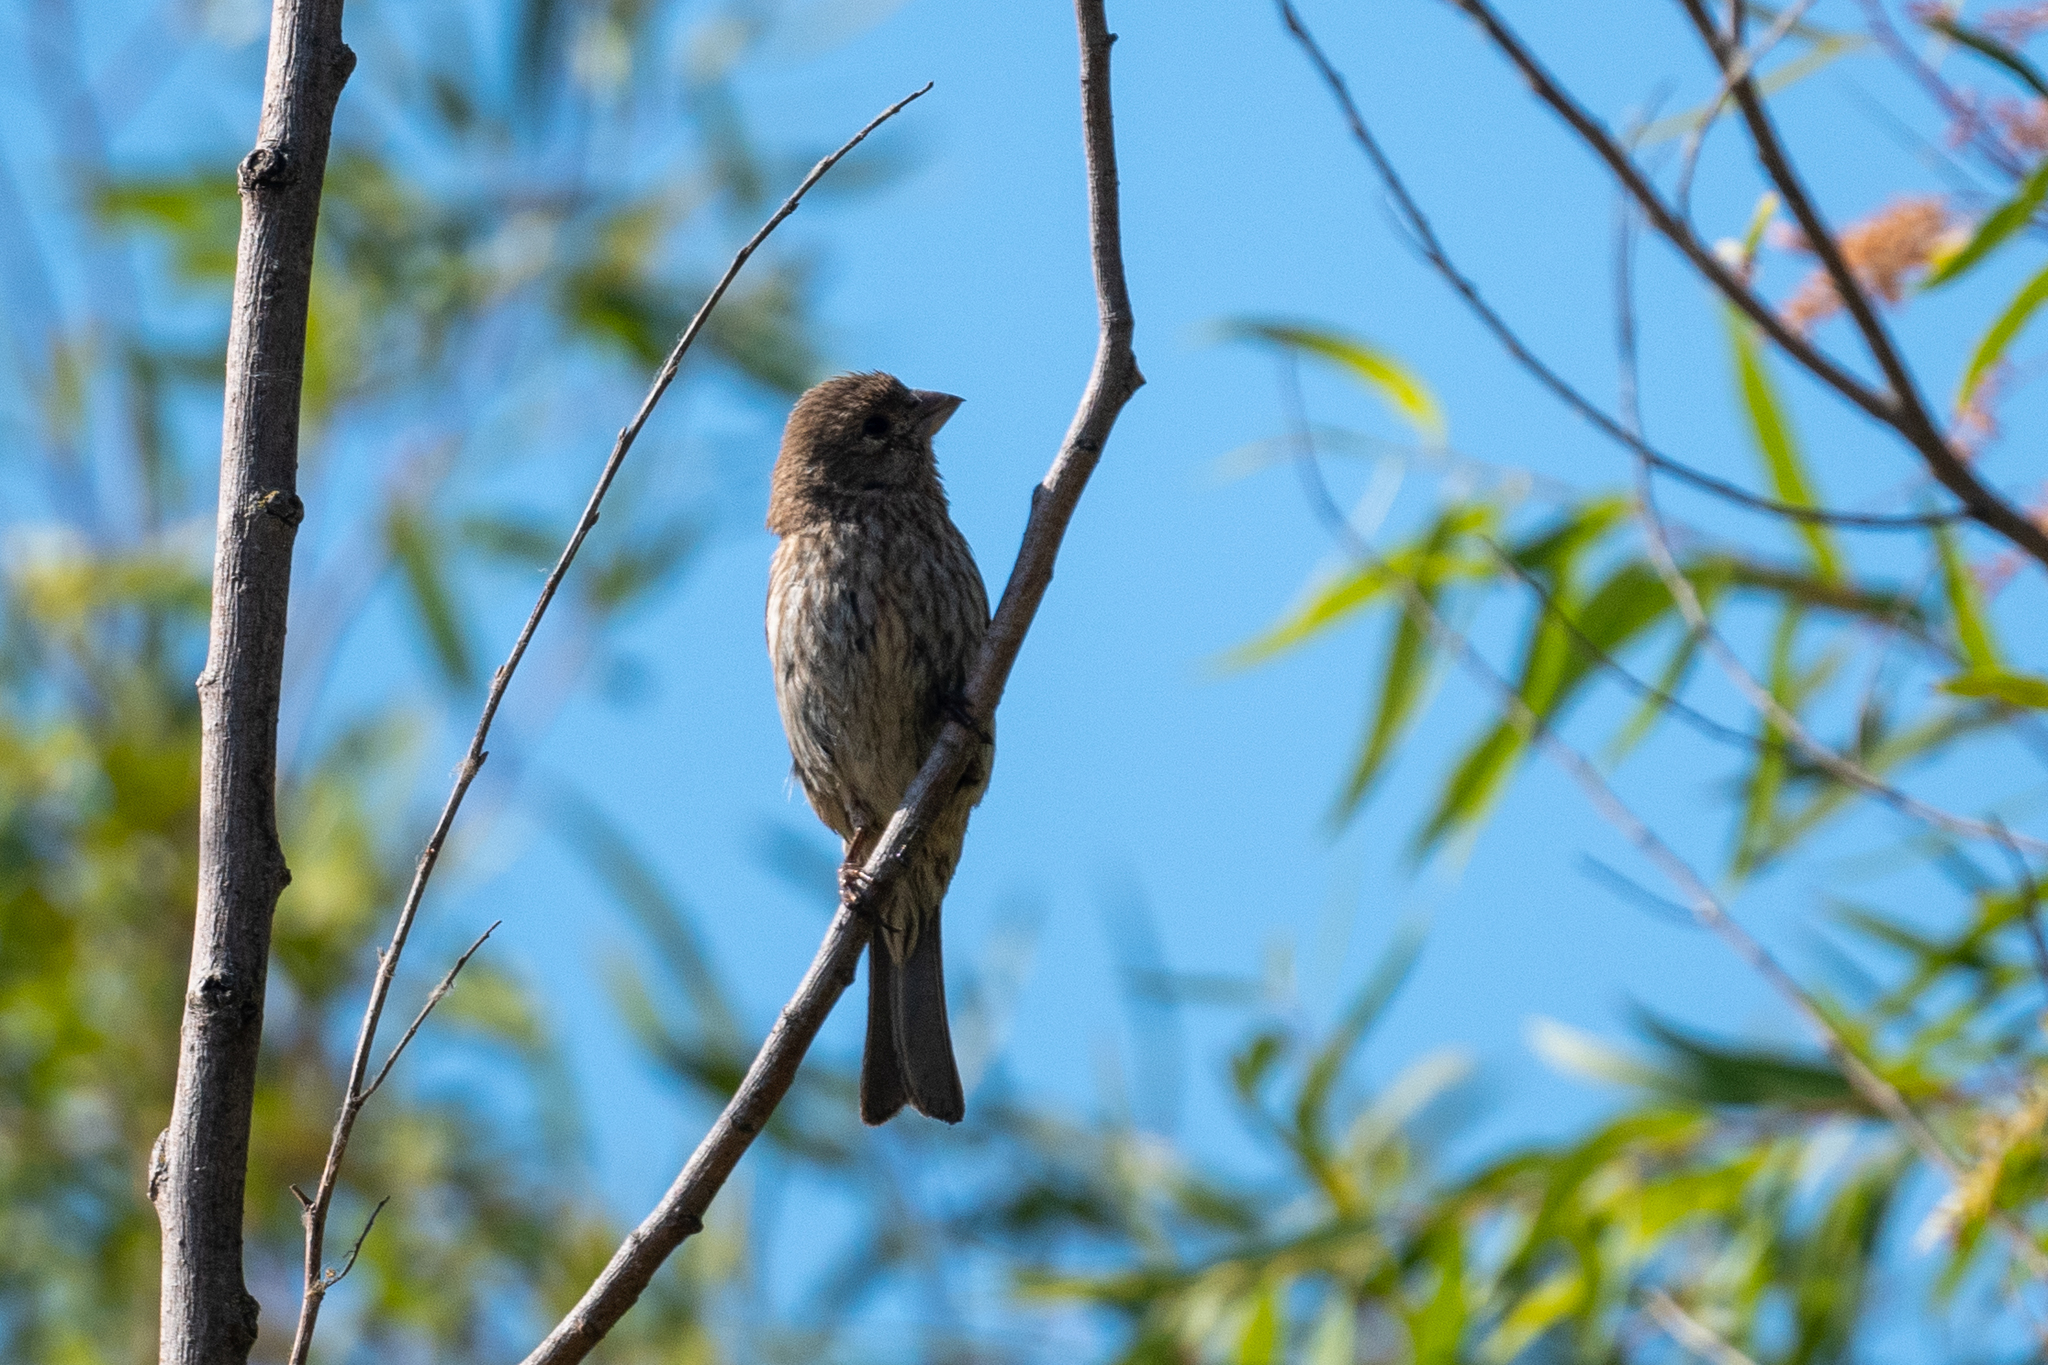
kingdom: Animalia
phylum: Chordata
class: Aves
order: Passeriformes
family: Fringillidae
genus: Haemorhous
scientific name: Haemorhous mexicanus
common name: House finch
